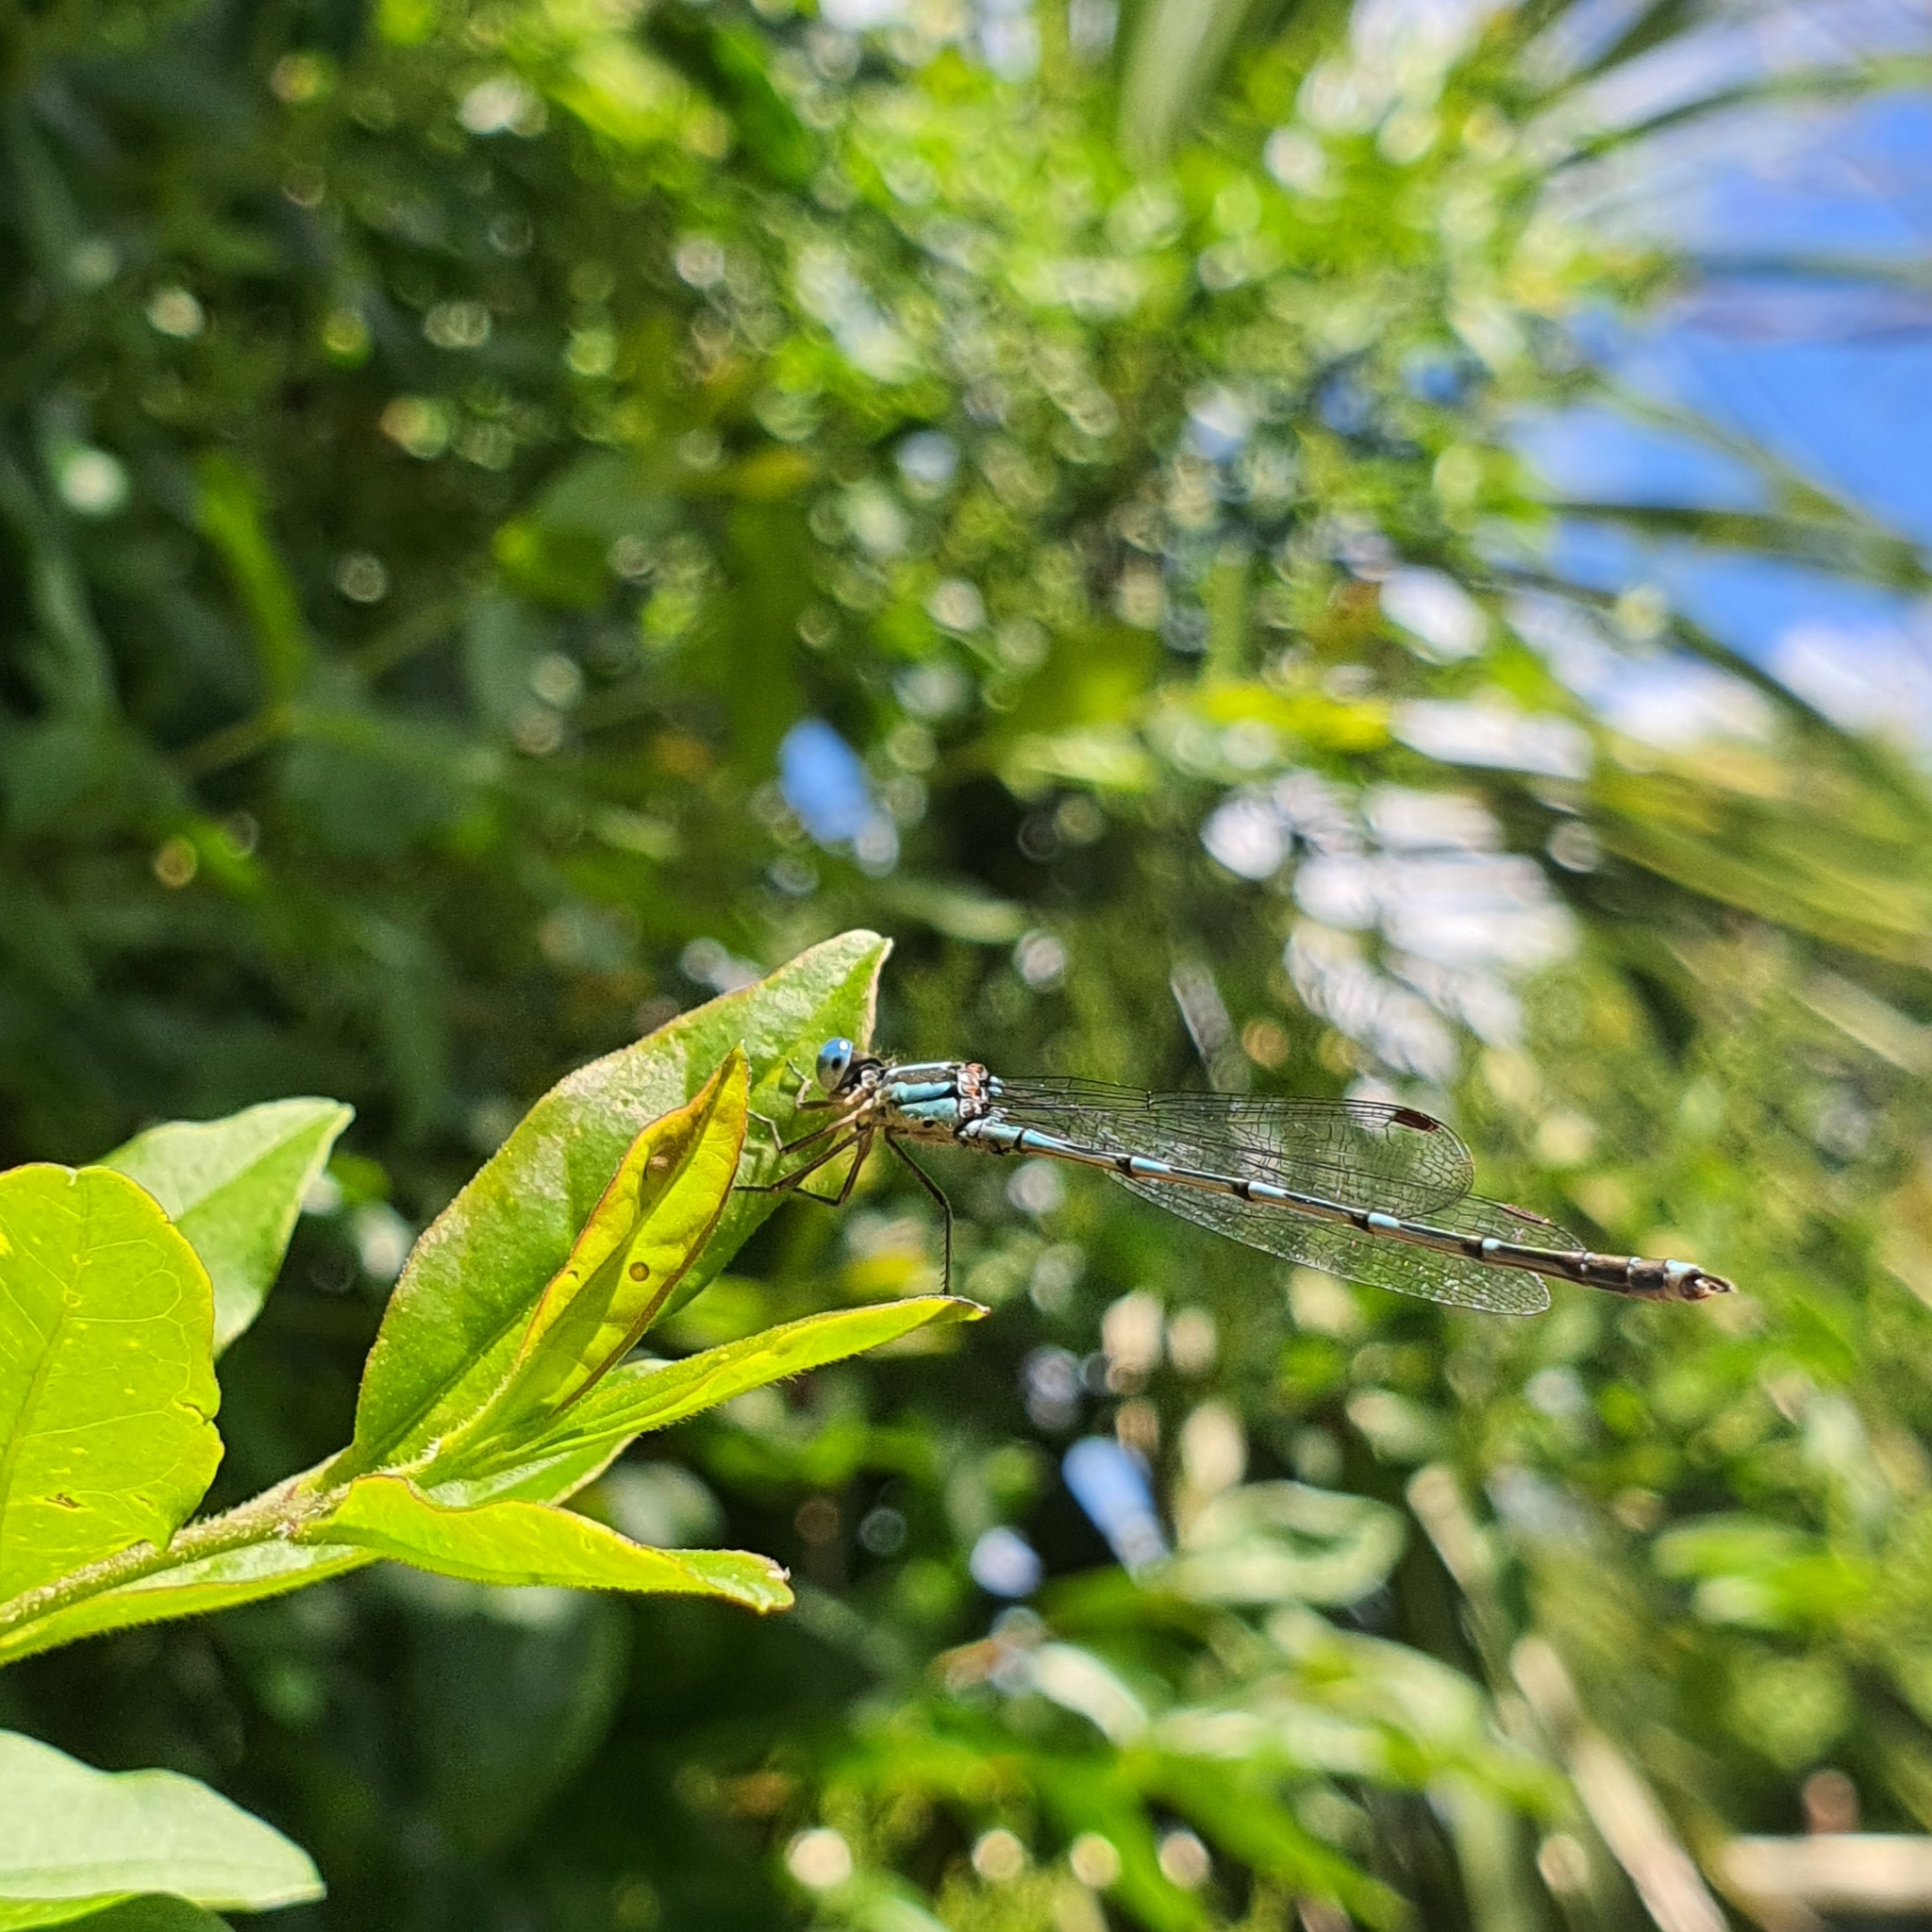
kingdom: Animalia
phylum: Arthropoda
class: Insecta
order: Odonata
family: Lestidae
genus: Austrolestes
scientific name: Austrolestes leda
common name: Wandering ringtail
